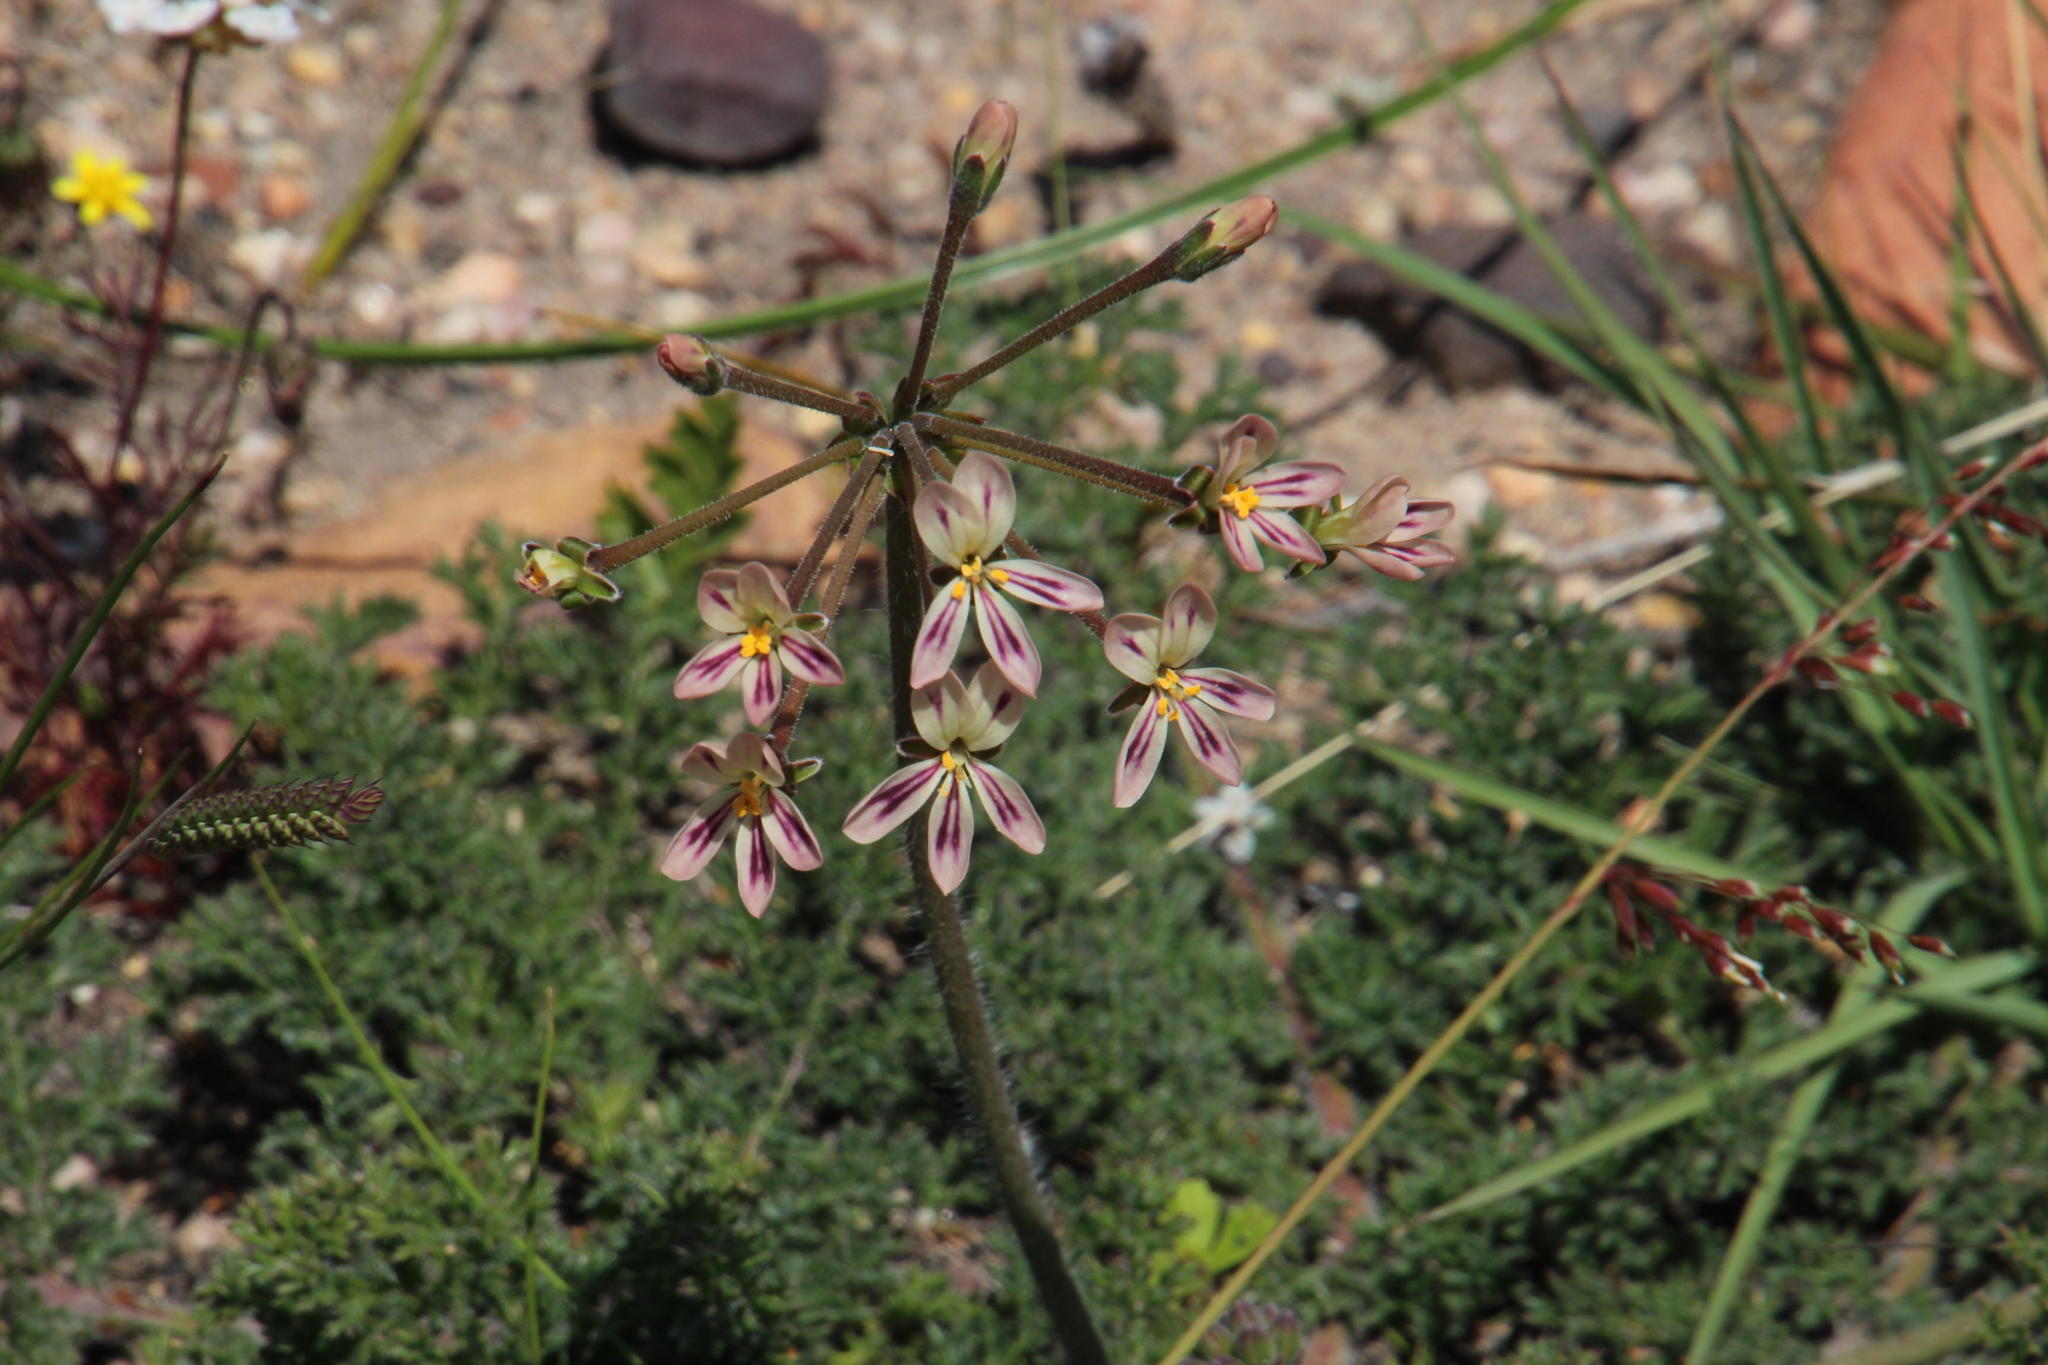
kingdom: Plantae
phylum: Tracheophyta
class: Magnoliopsida
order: Geraniales
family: Geraniaceae
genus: Pelargonium
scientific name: Pelargonium triste
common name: Night-scent pelargonium
